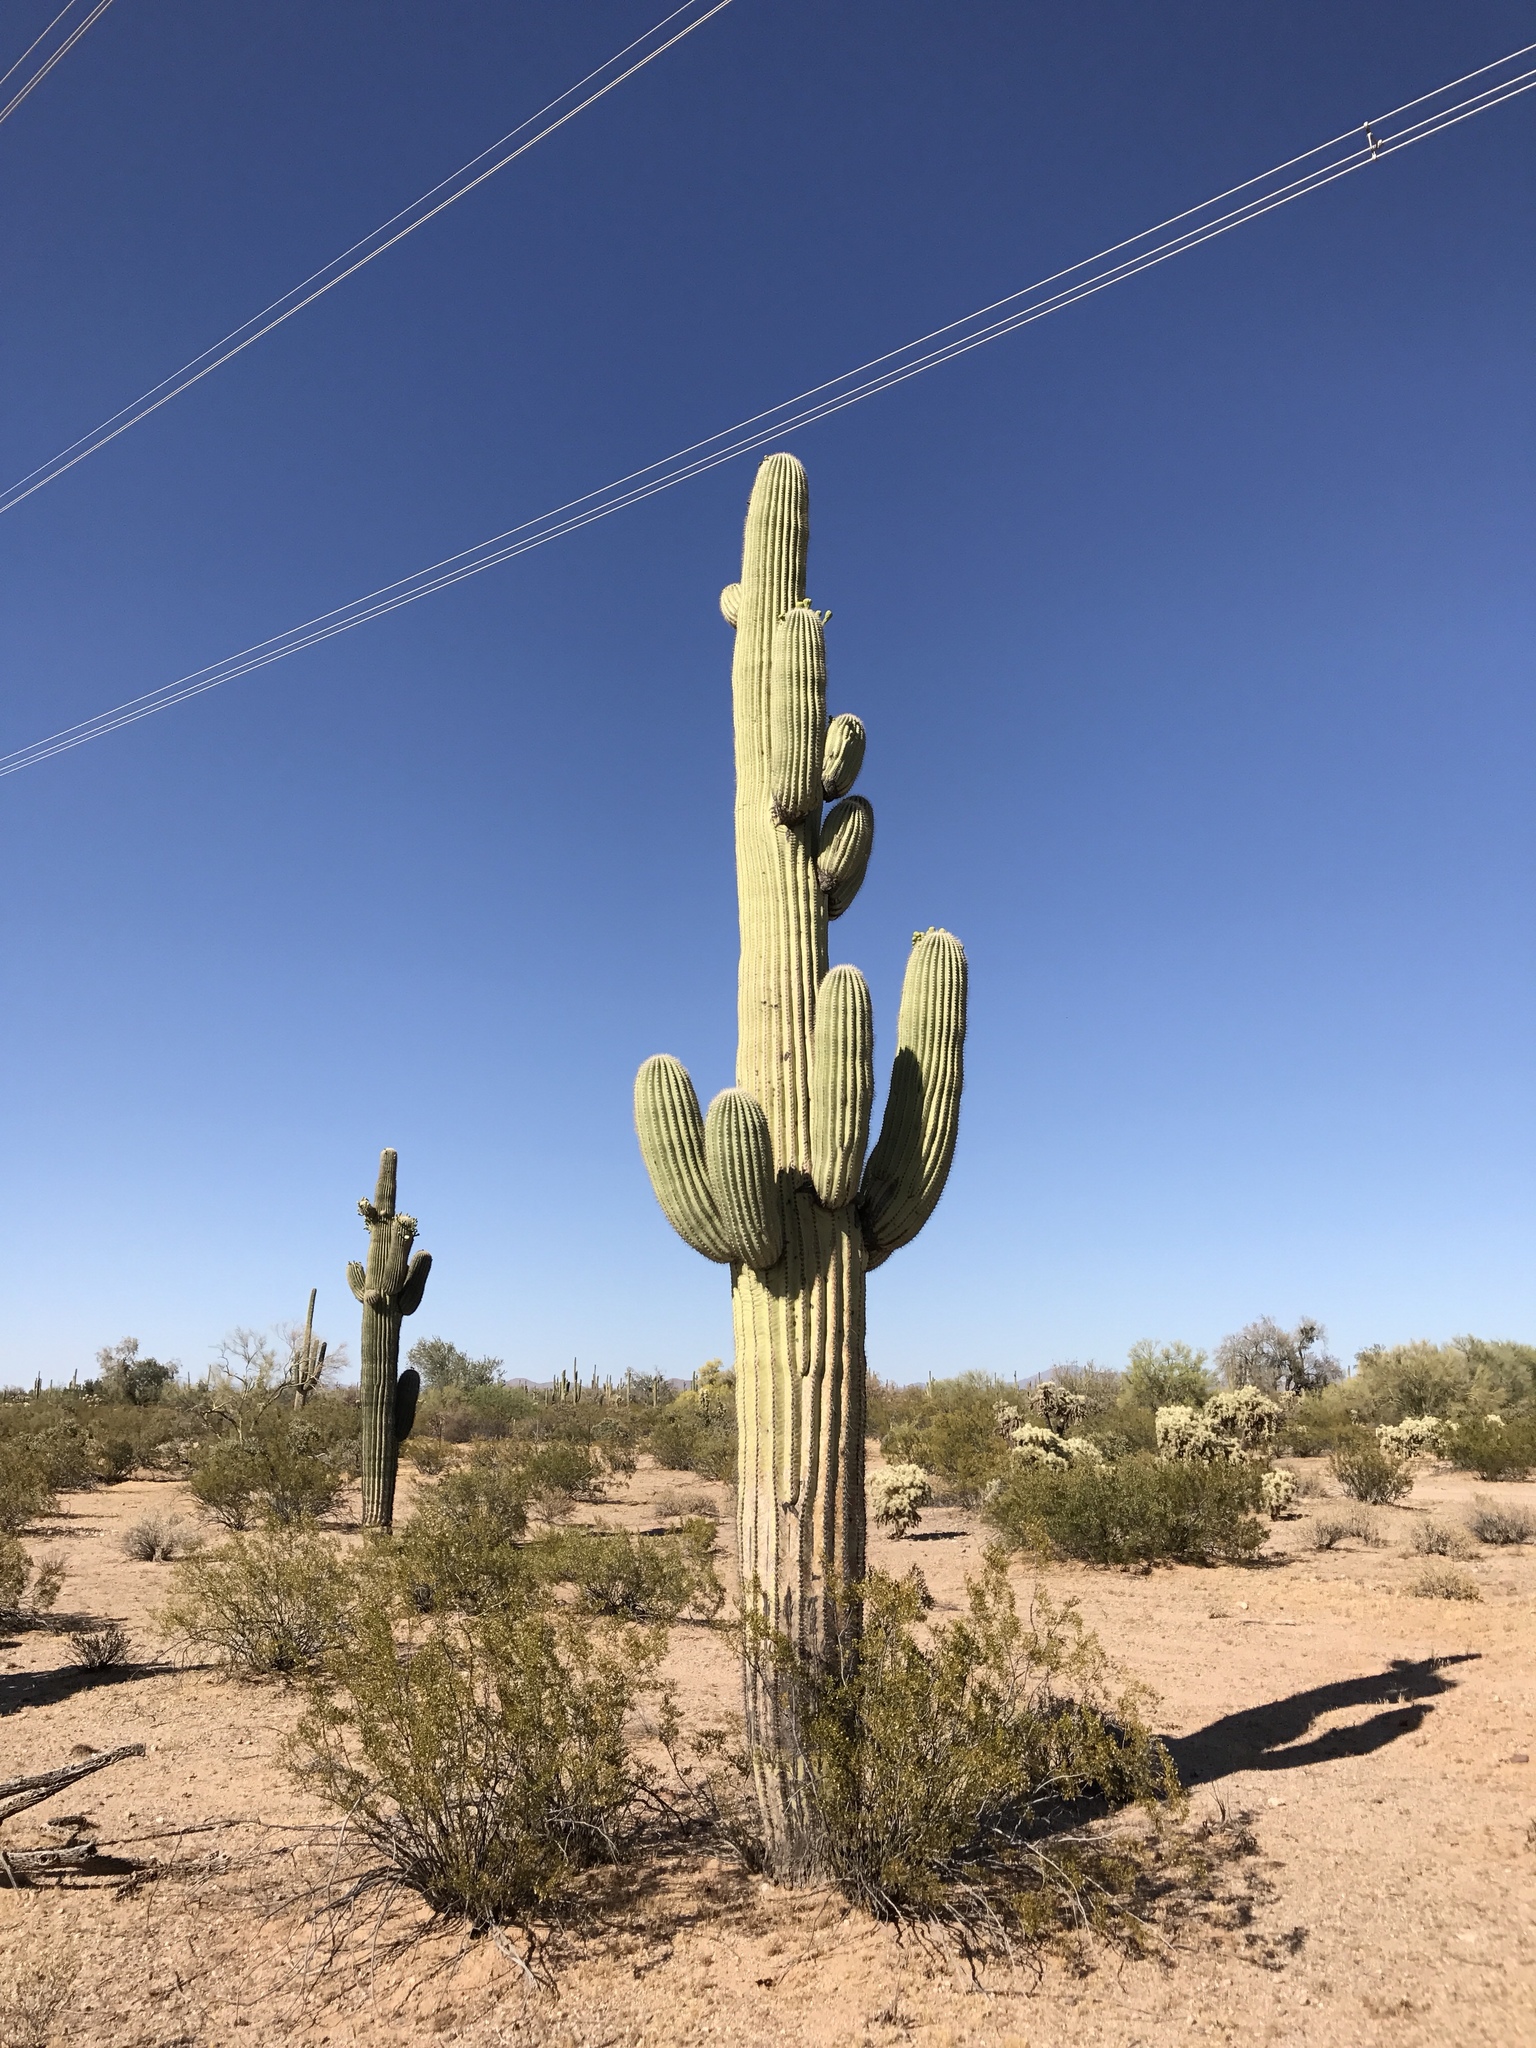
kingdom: Plantae
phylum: Tracheophyta
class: Magnoliopsida
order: Caryophyllales
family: Cactaceae
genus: Carnegiea
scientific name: Carnegiea gigantea
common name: Saguaro
